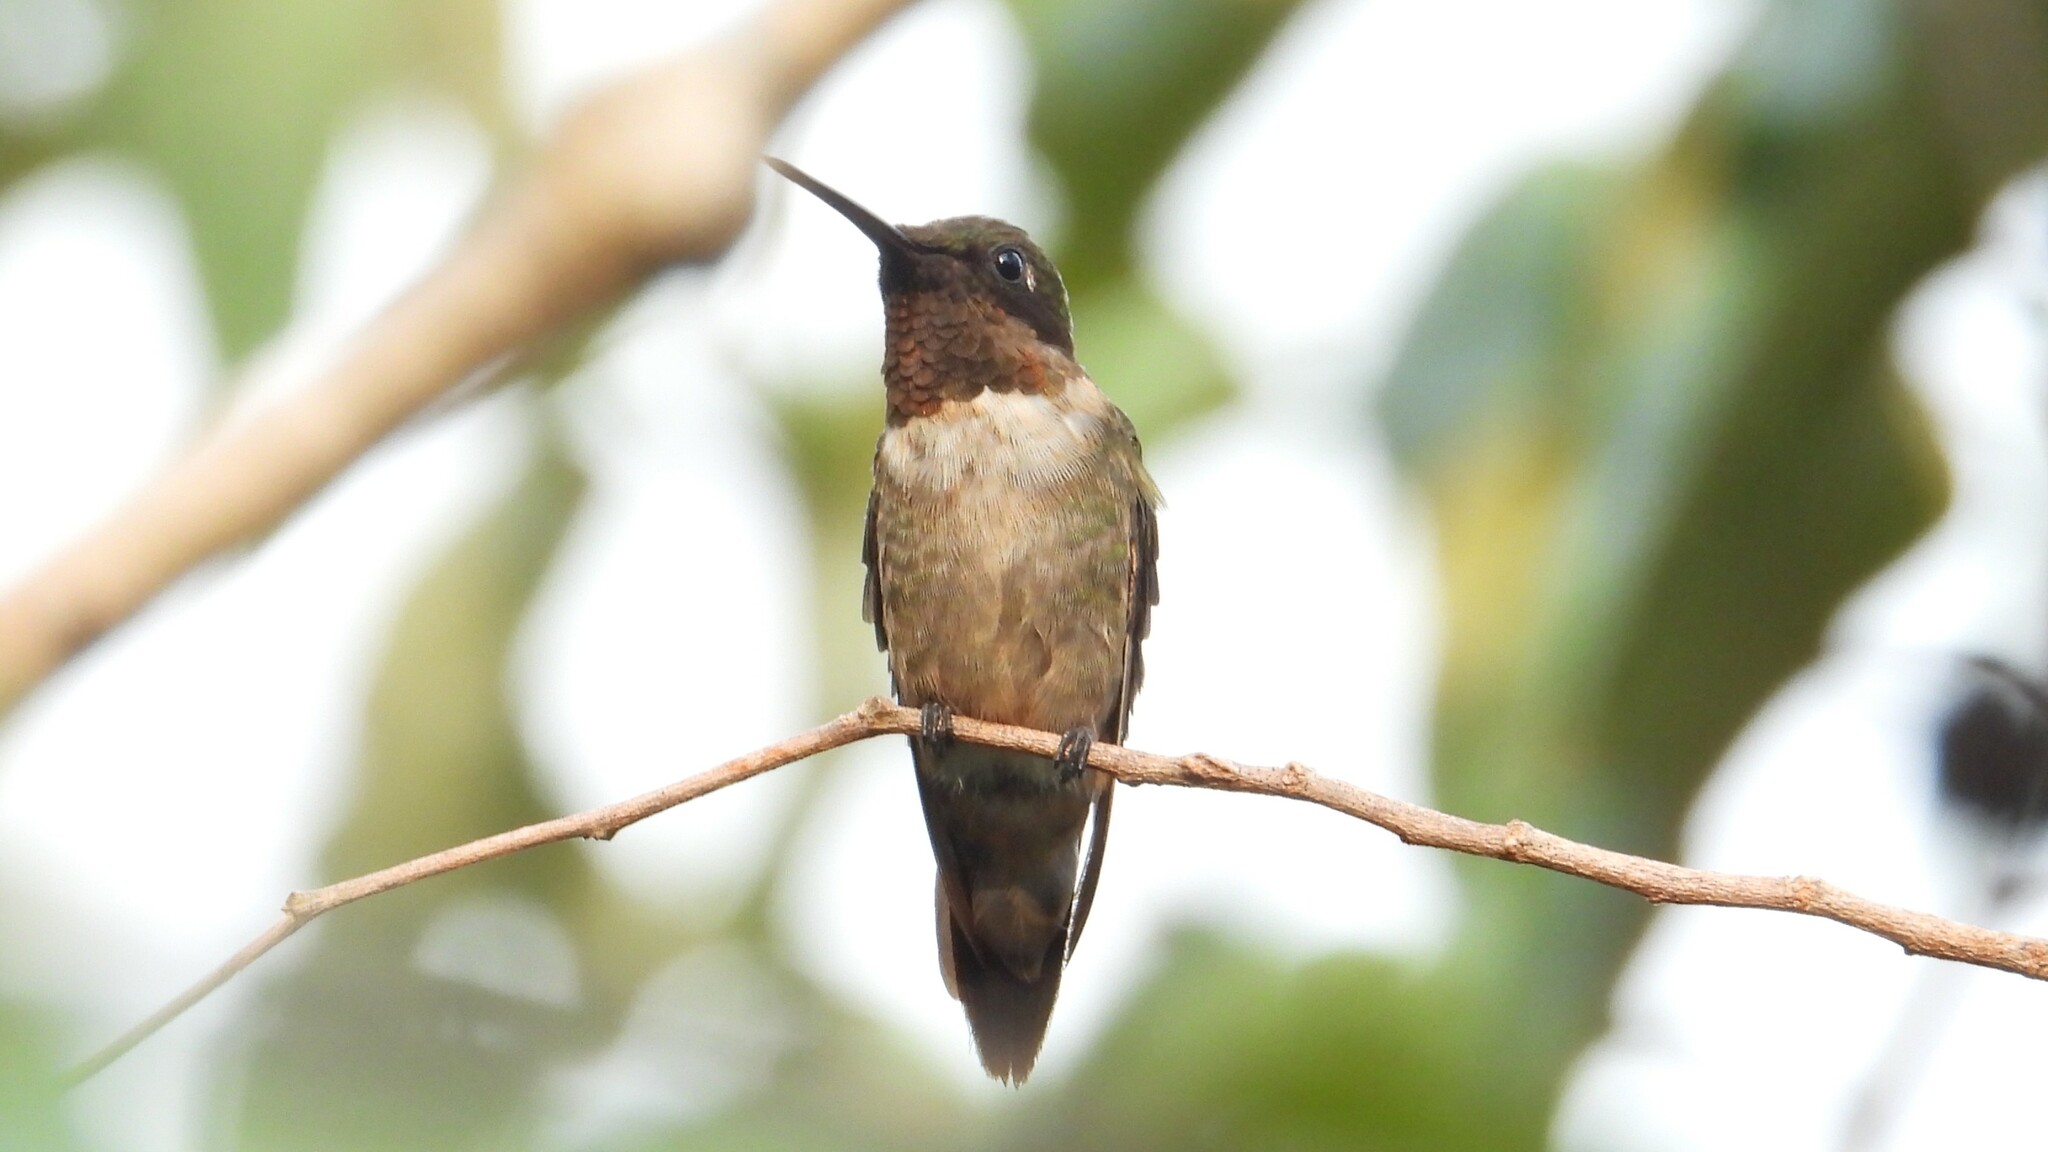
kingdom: Animalia
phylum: Chordata
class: Aves
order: Apodiformes
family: Trochilidae
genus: Archilochus
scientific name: Archilochus colubris
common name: Ruby-throated hummingbird
